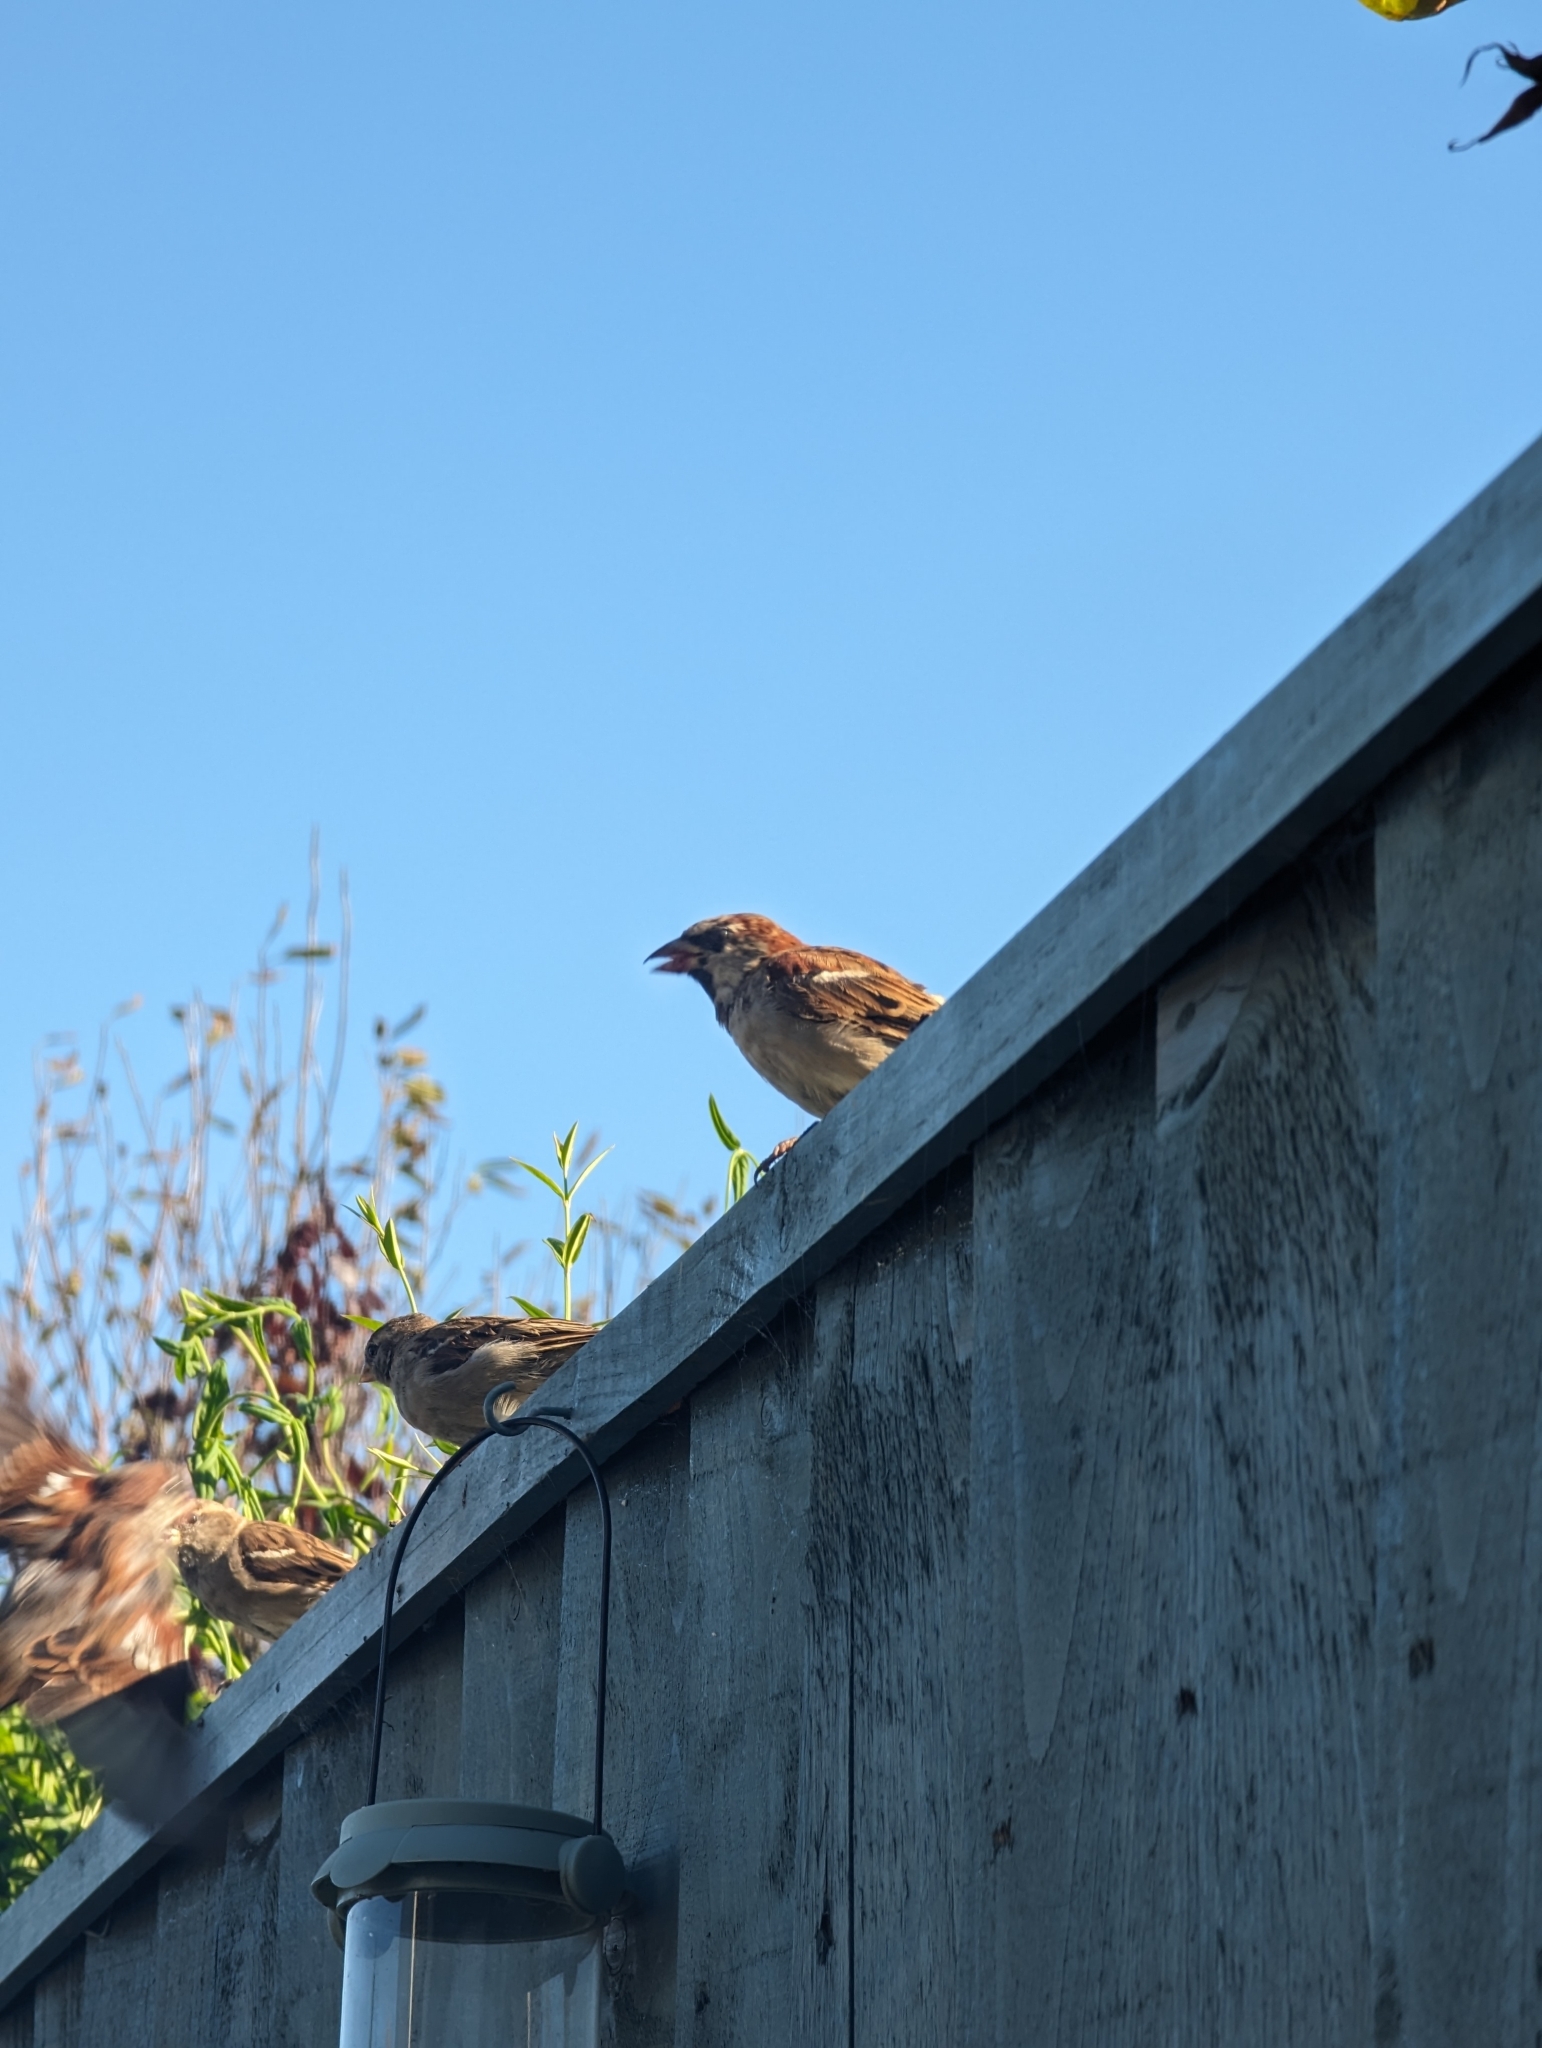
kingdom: Animalia
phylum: Chordata
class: Aves
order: Passeriformes
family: Passeridae
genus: Passer
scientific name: Passer domesticus
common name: House sparrow
